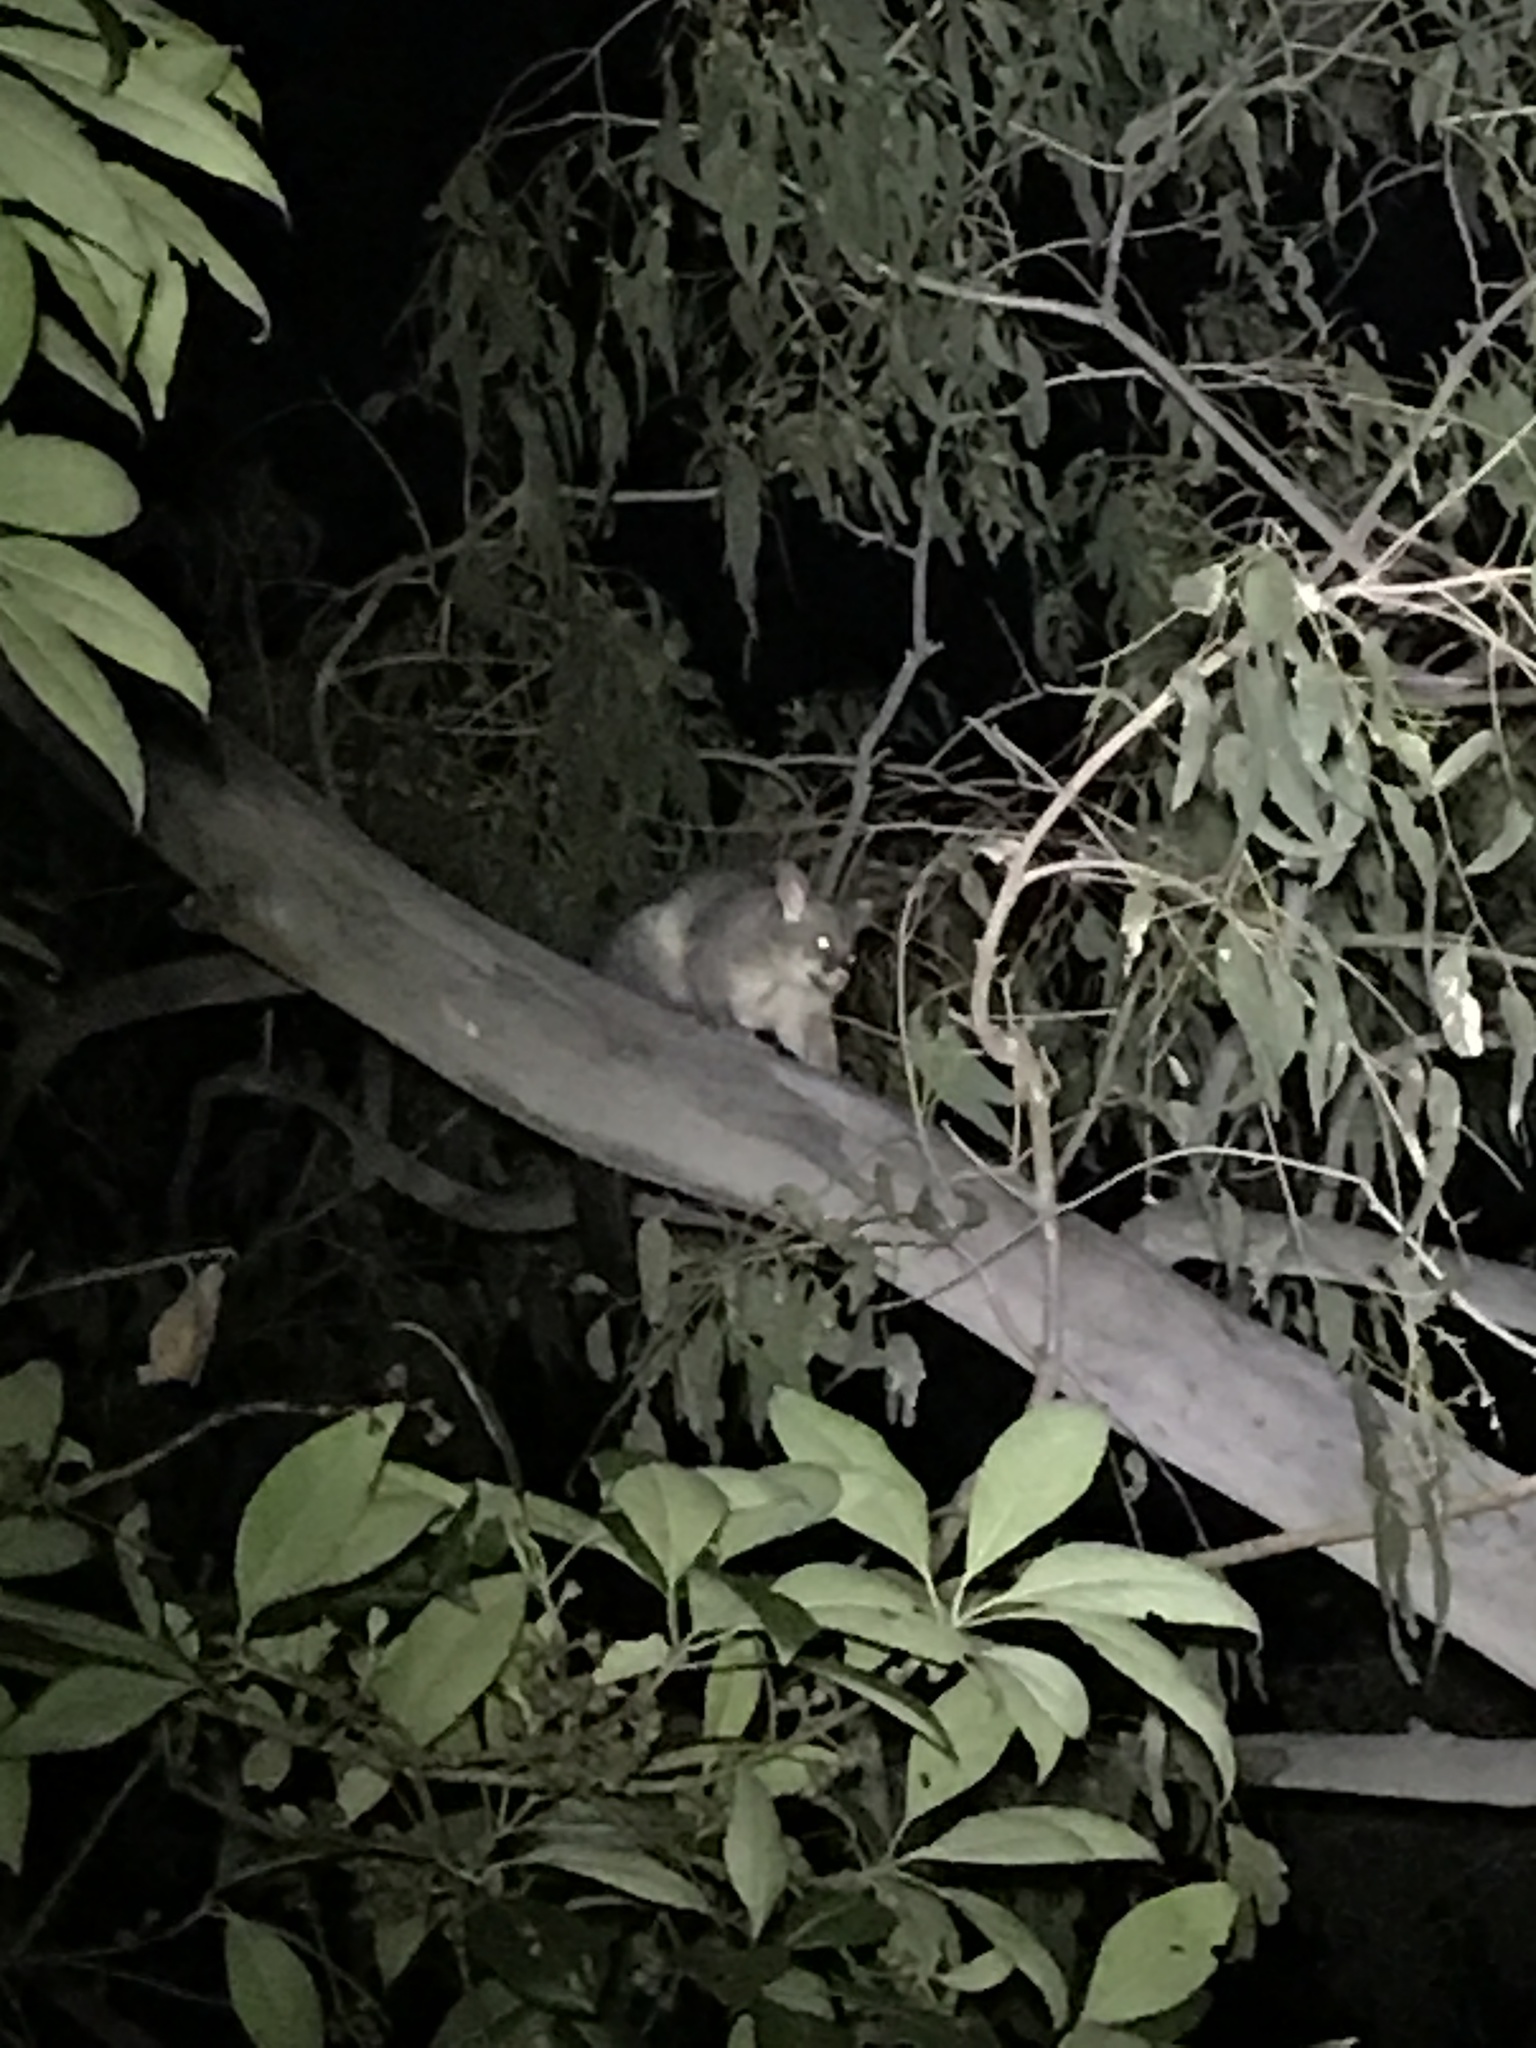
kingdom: Animalia
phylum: Chordata
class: Mammalia
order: Diprotodontia
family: Phalangeridae
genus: Trichosurus
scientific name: Trichosurus vulpecula
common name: Common brushtail
